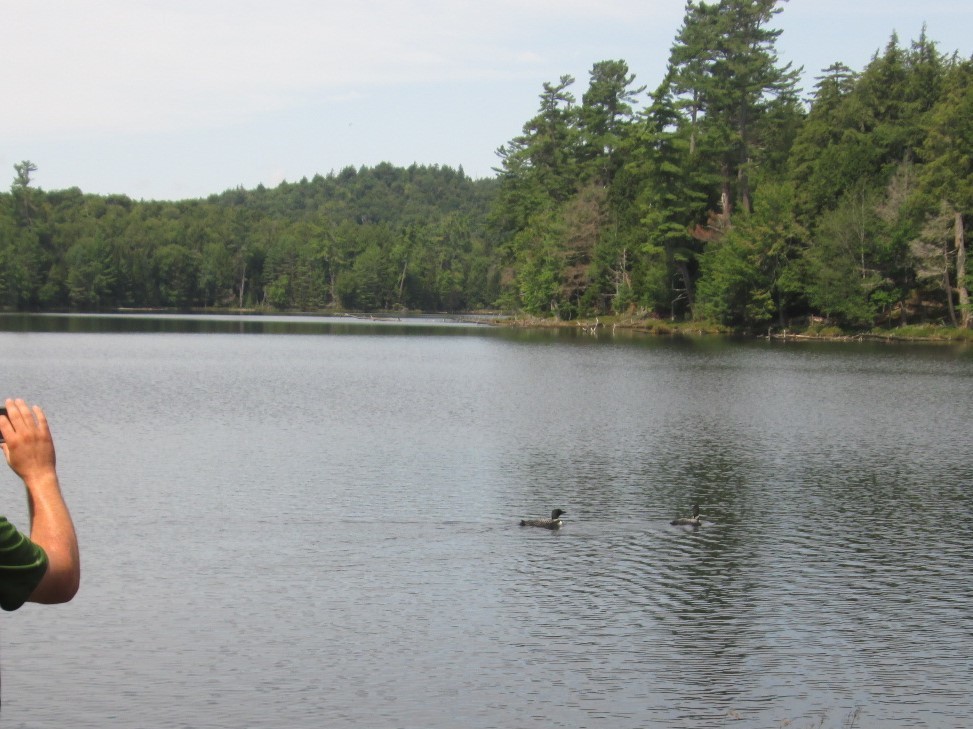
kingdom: Animalia
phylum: Chordata
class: Aves
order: Gaviiformes
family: Gaviidae
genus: Gavia
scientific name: Gavia immer
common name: Common loon
